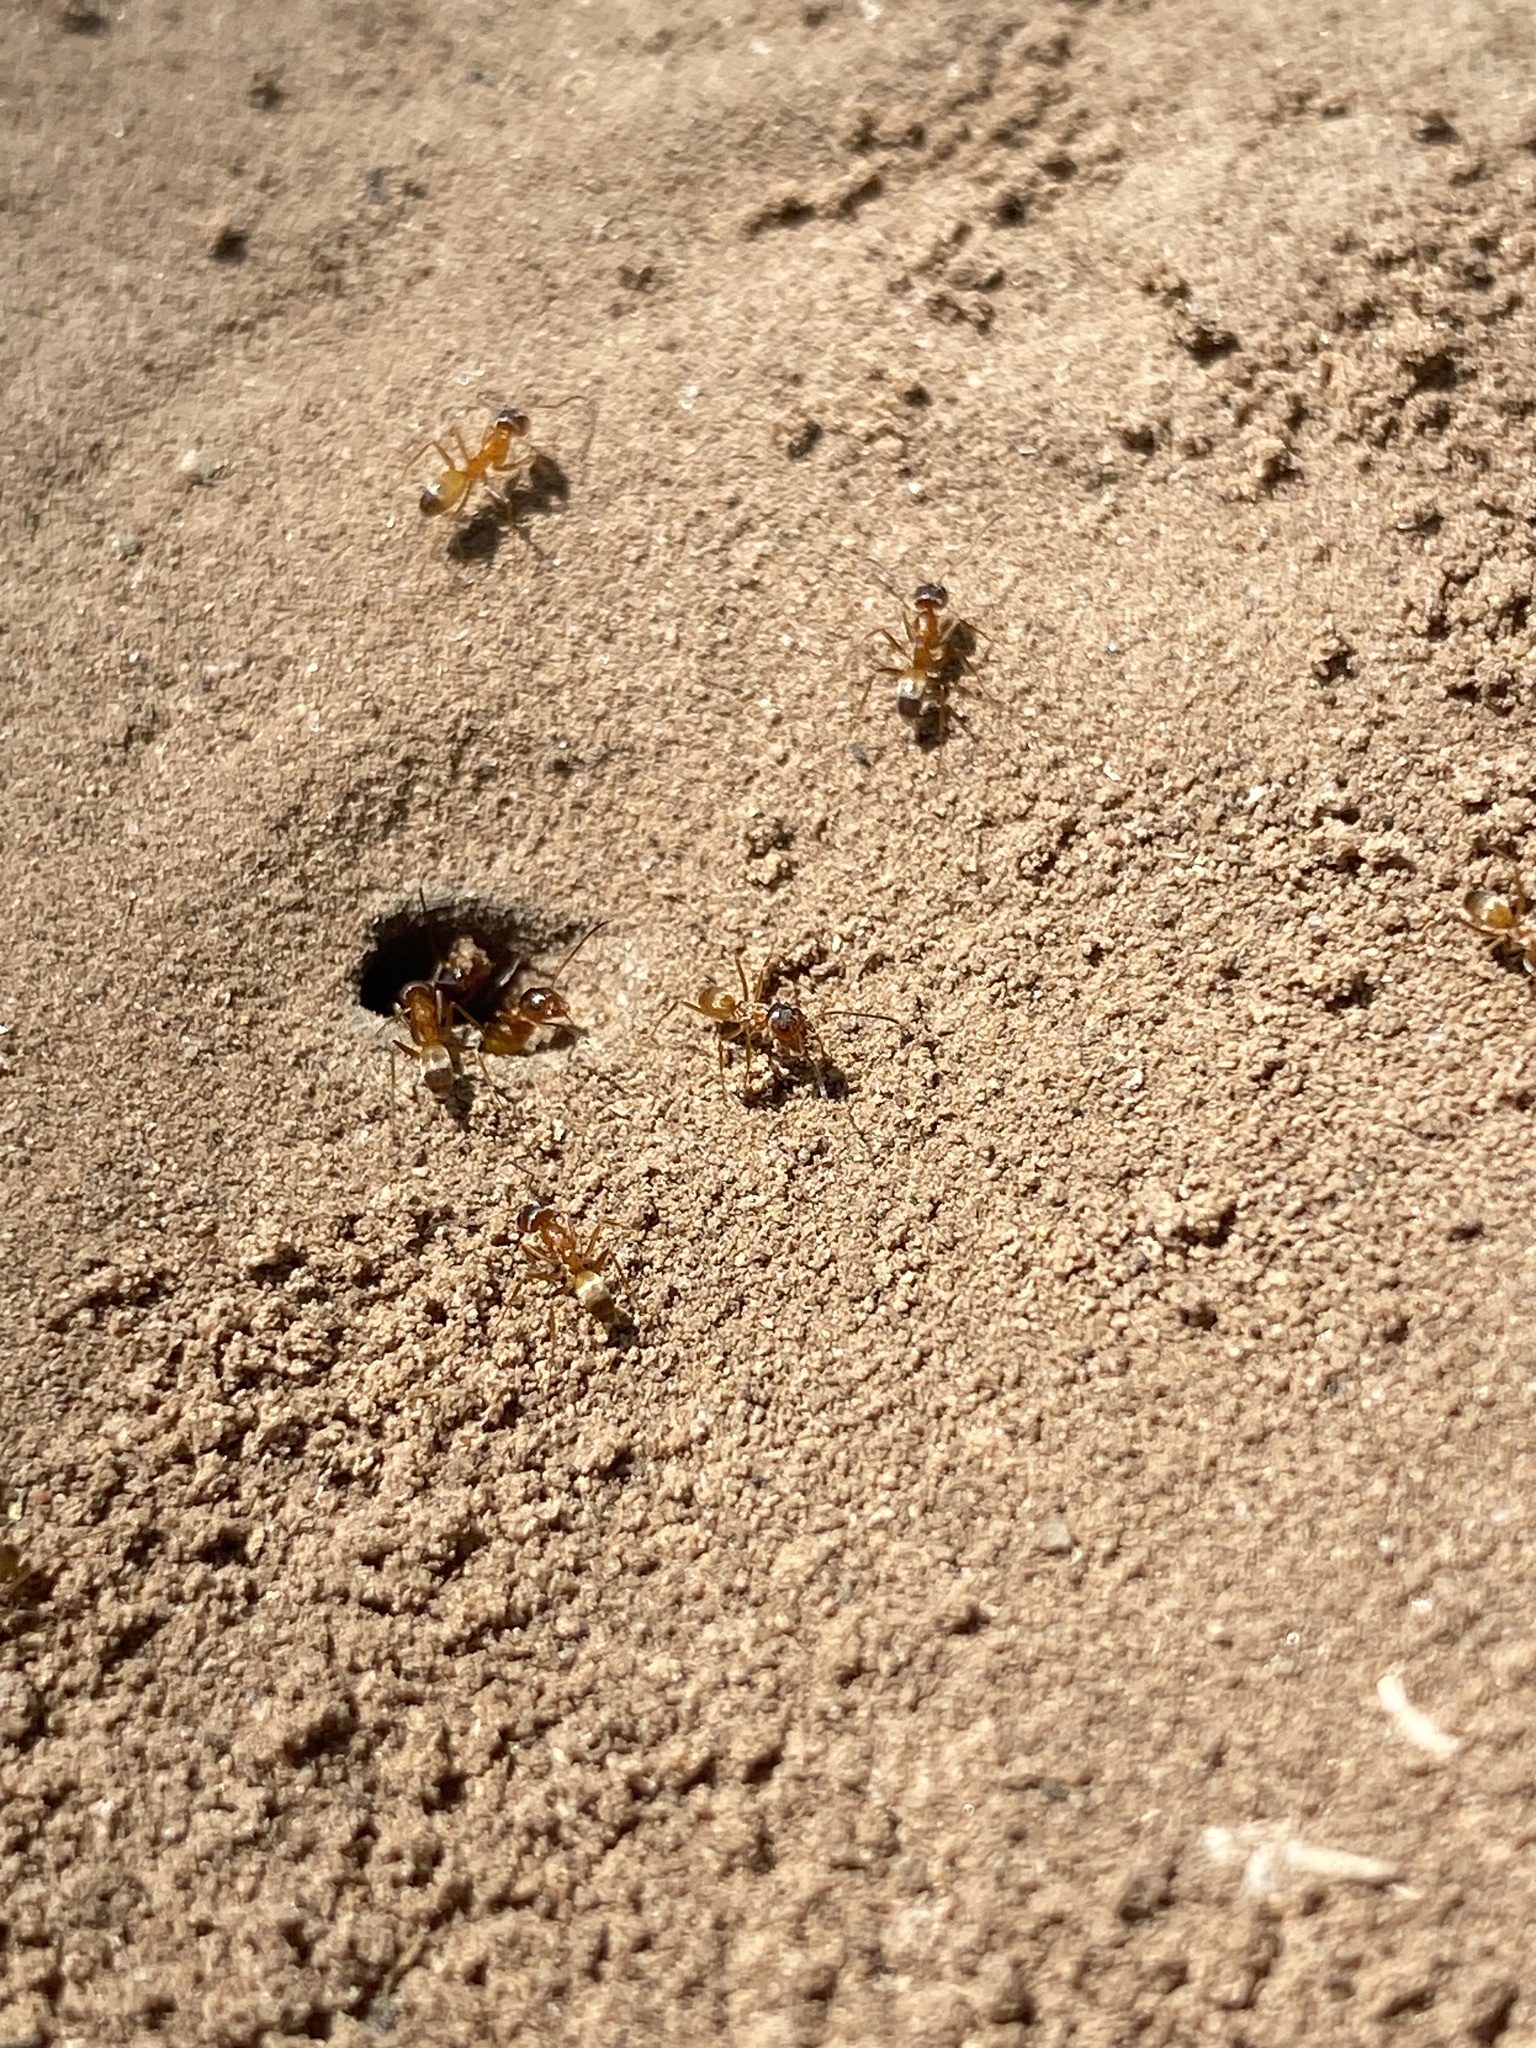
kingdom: Animalia
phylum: Arthropoda
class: Insecta
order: Hymenoptera
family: Formicidae
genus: Dorymyrmex
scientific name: Dorymyrmex flavus
